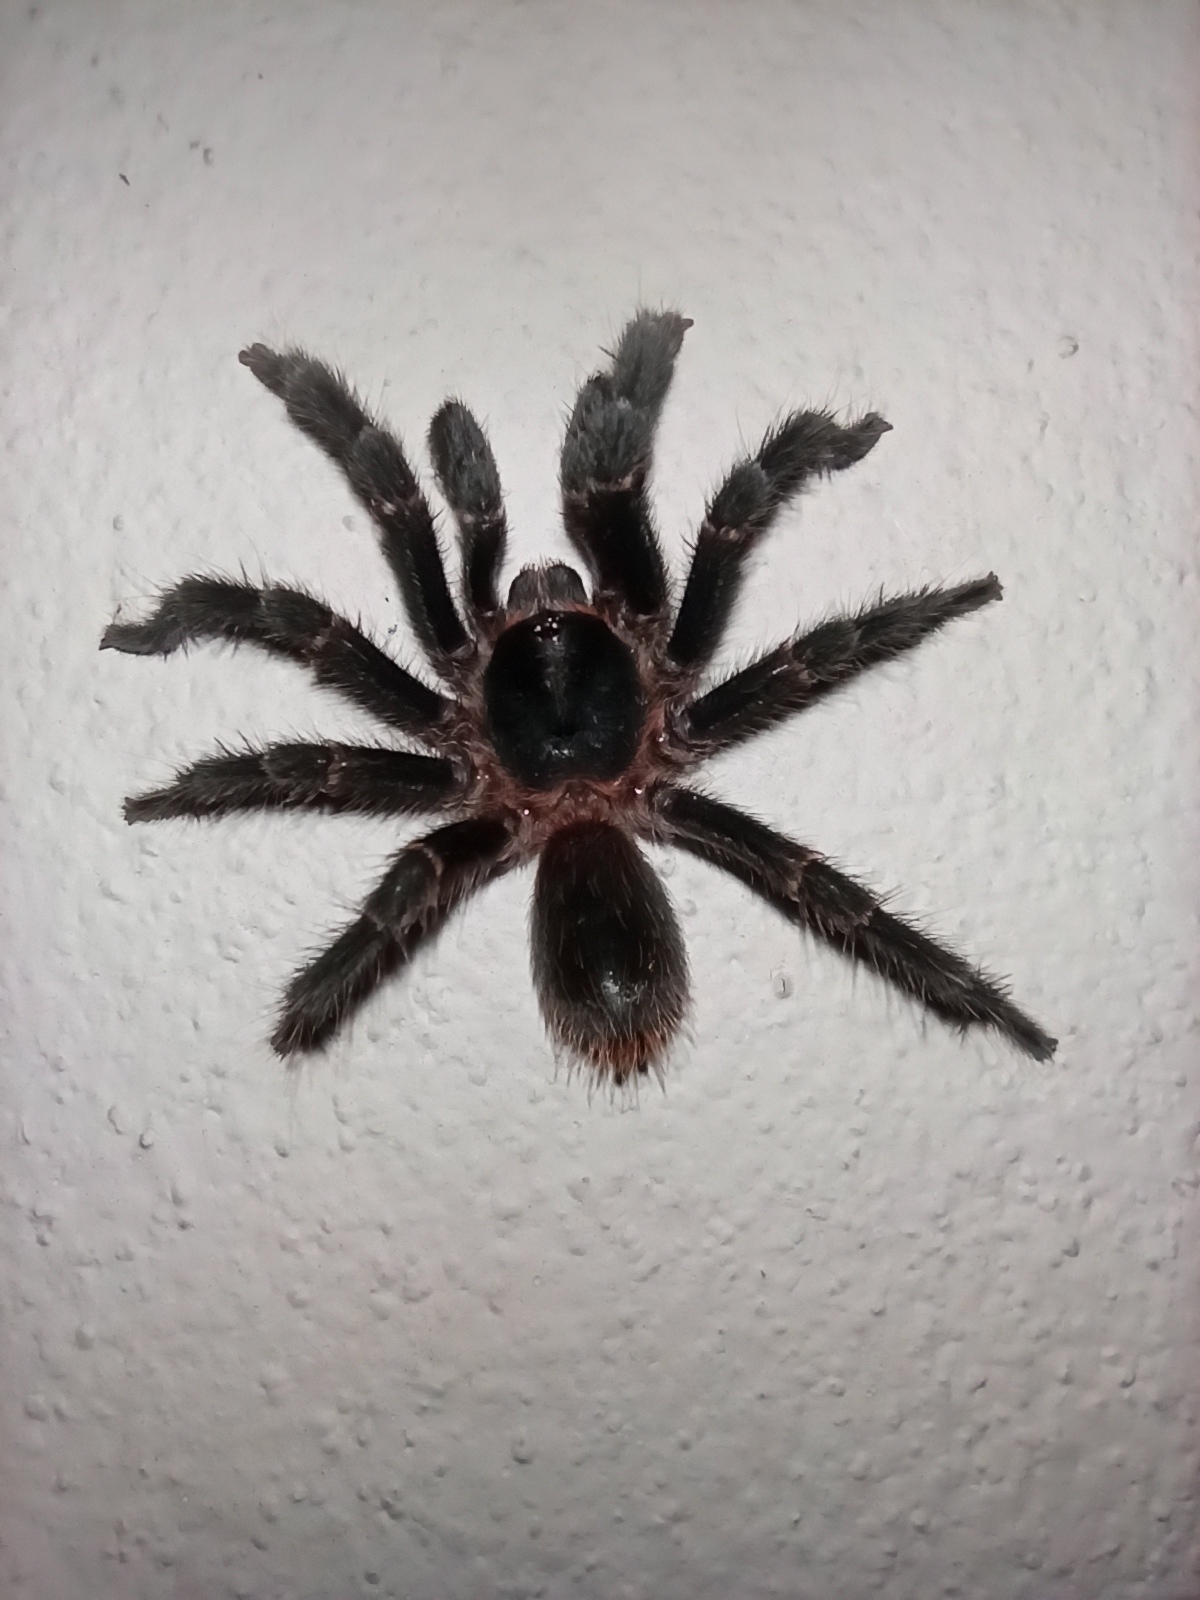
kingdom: Animalia
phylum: Arthropoda
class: Arachnida
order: Araneae
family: Theraphosidae
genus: Homoeomma
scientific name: Homoeomma uruguayense
